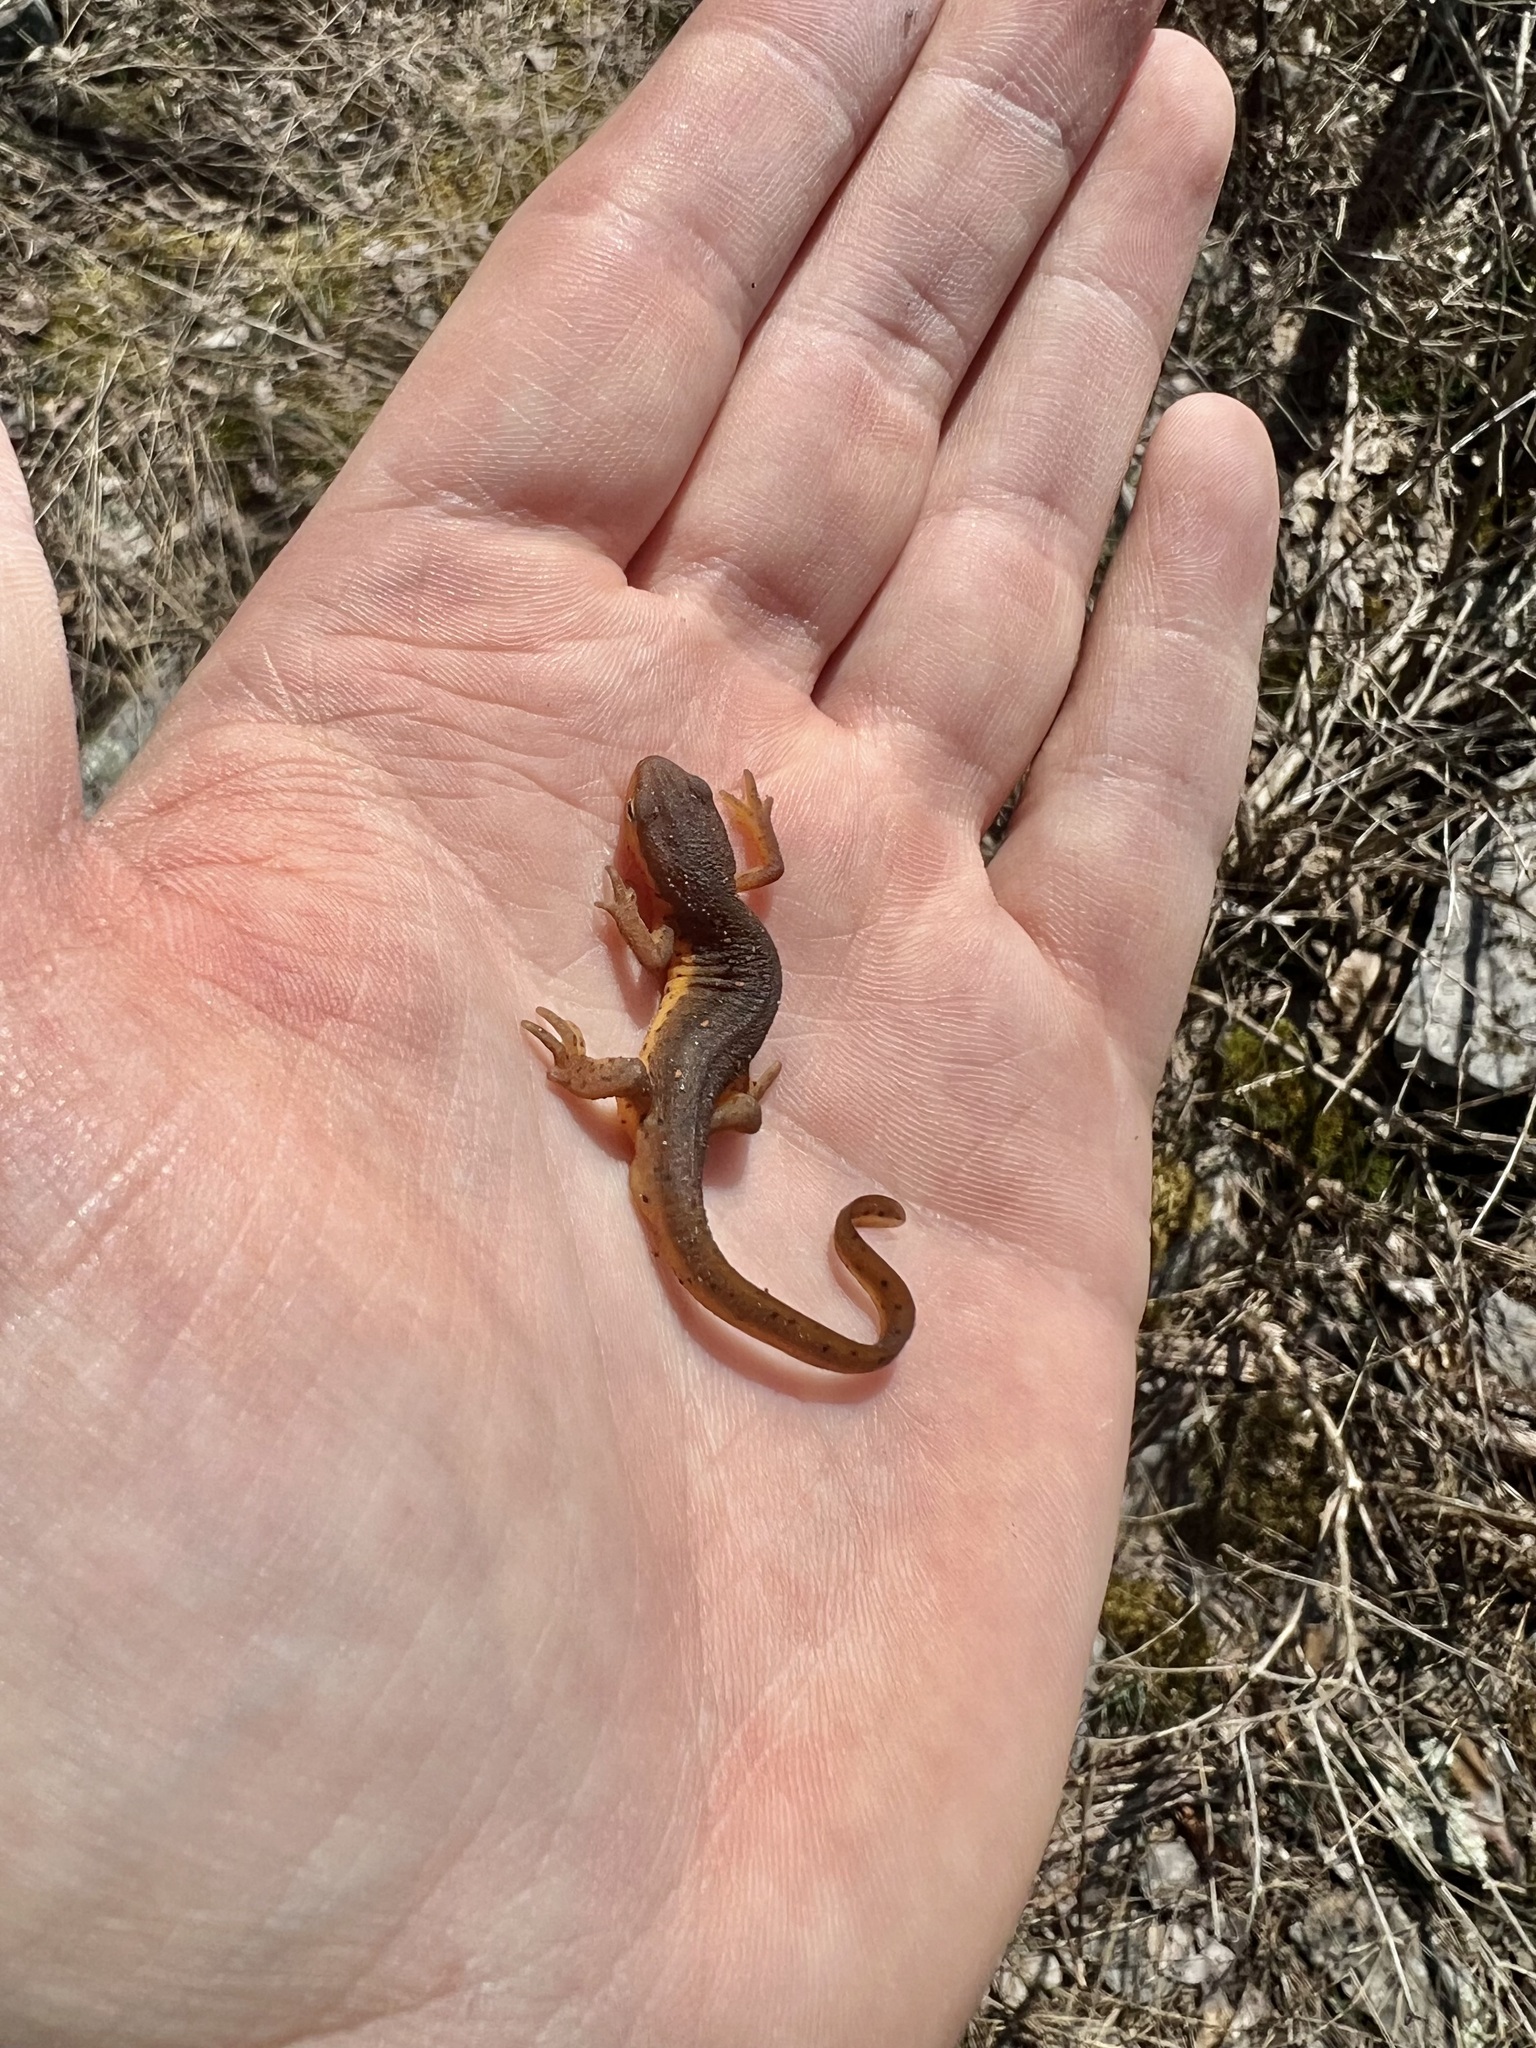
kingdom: Animalia
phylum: Chordata
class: Amphibia
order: Caudata
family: Salamandridae
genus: Notophthalmus
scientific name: Notophthalmus viridescens
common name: Eastern newt
